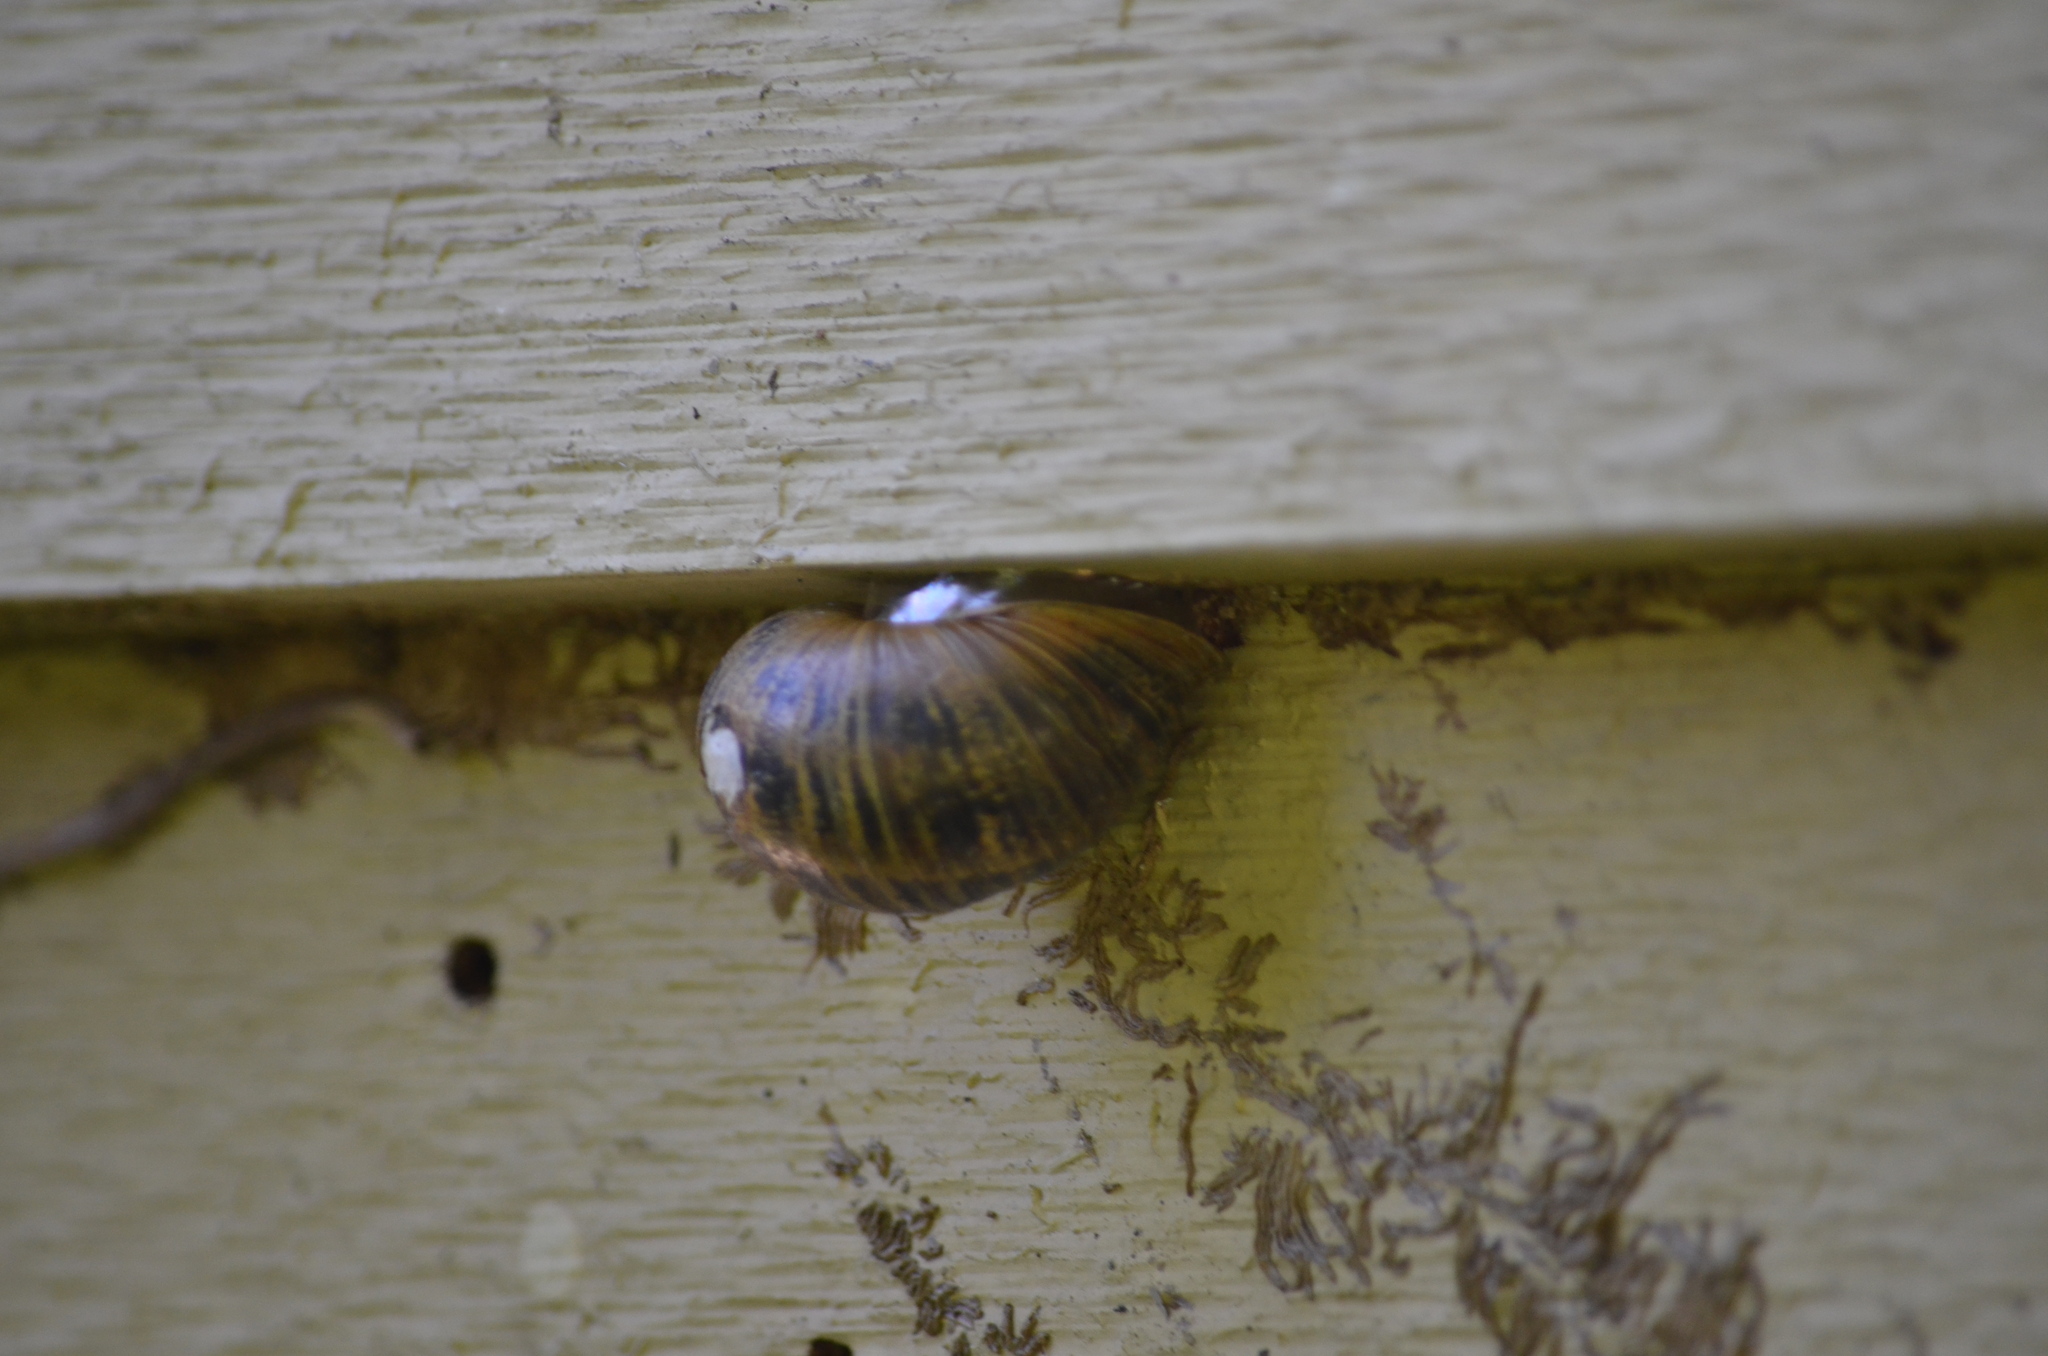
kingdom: Animalia
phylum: Mollusca
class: Gastropoda
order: Stylommatophora
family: Helicidae
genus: Cornu
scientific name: Cornu aspersum
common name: Brown garden snail
